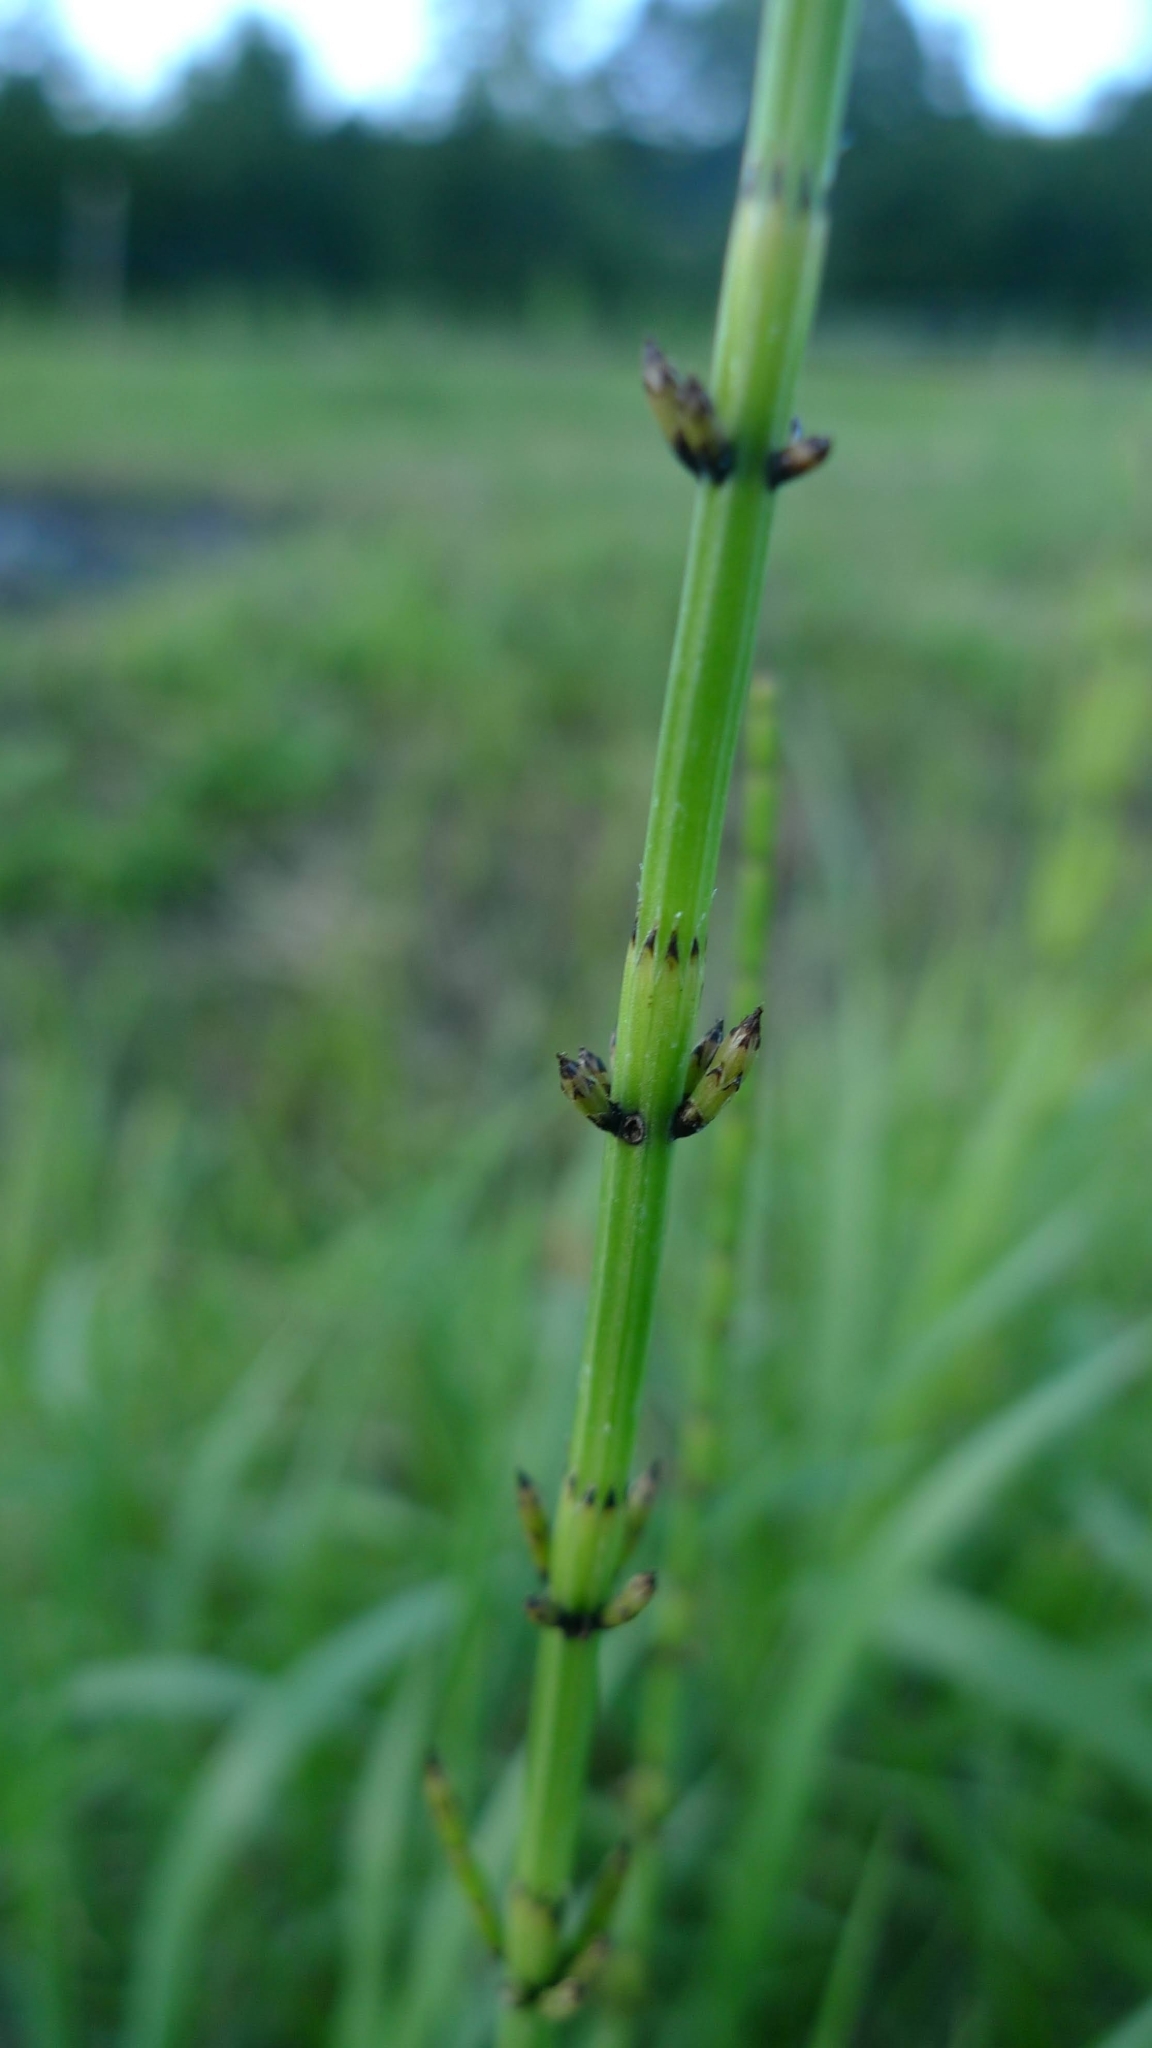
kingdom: Plantae
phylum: Tracheophyta
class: Polypodiopsida
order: Equisetales
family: Equisetaceae
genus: Equisetum
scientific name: Equisetum palustre
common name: Marsh horsetail
